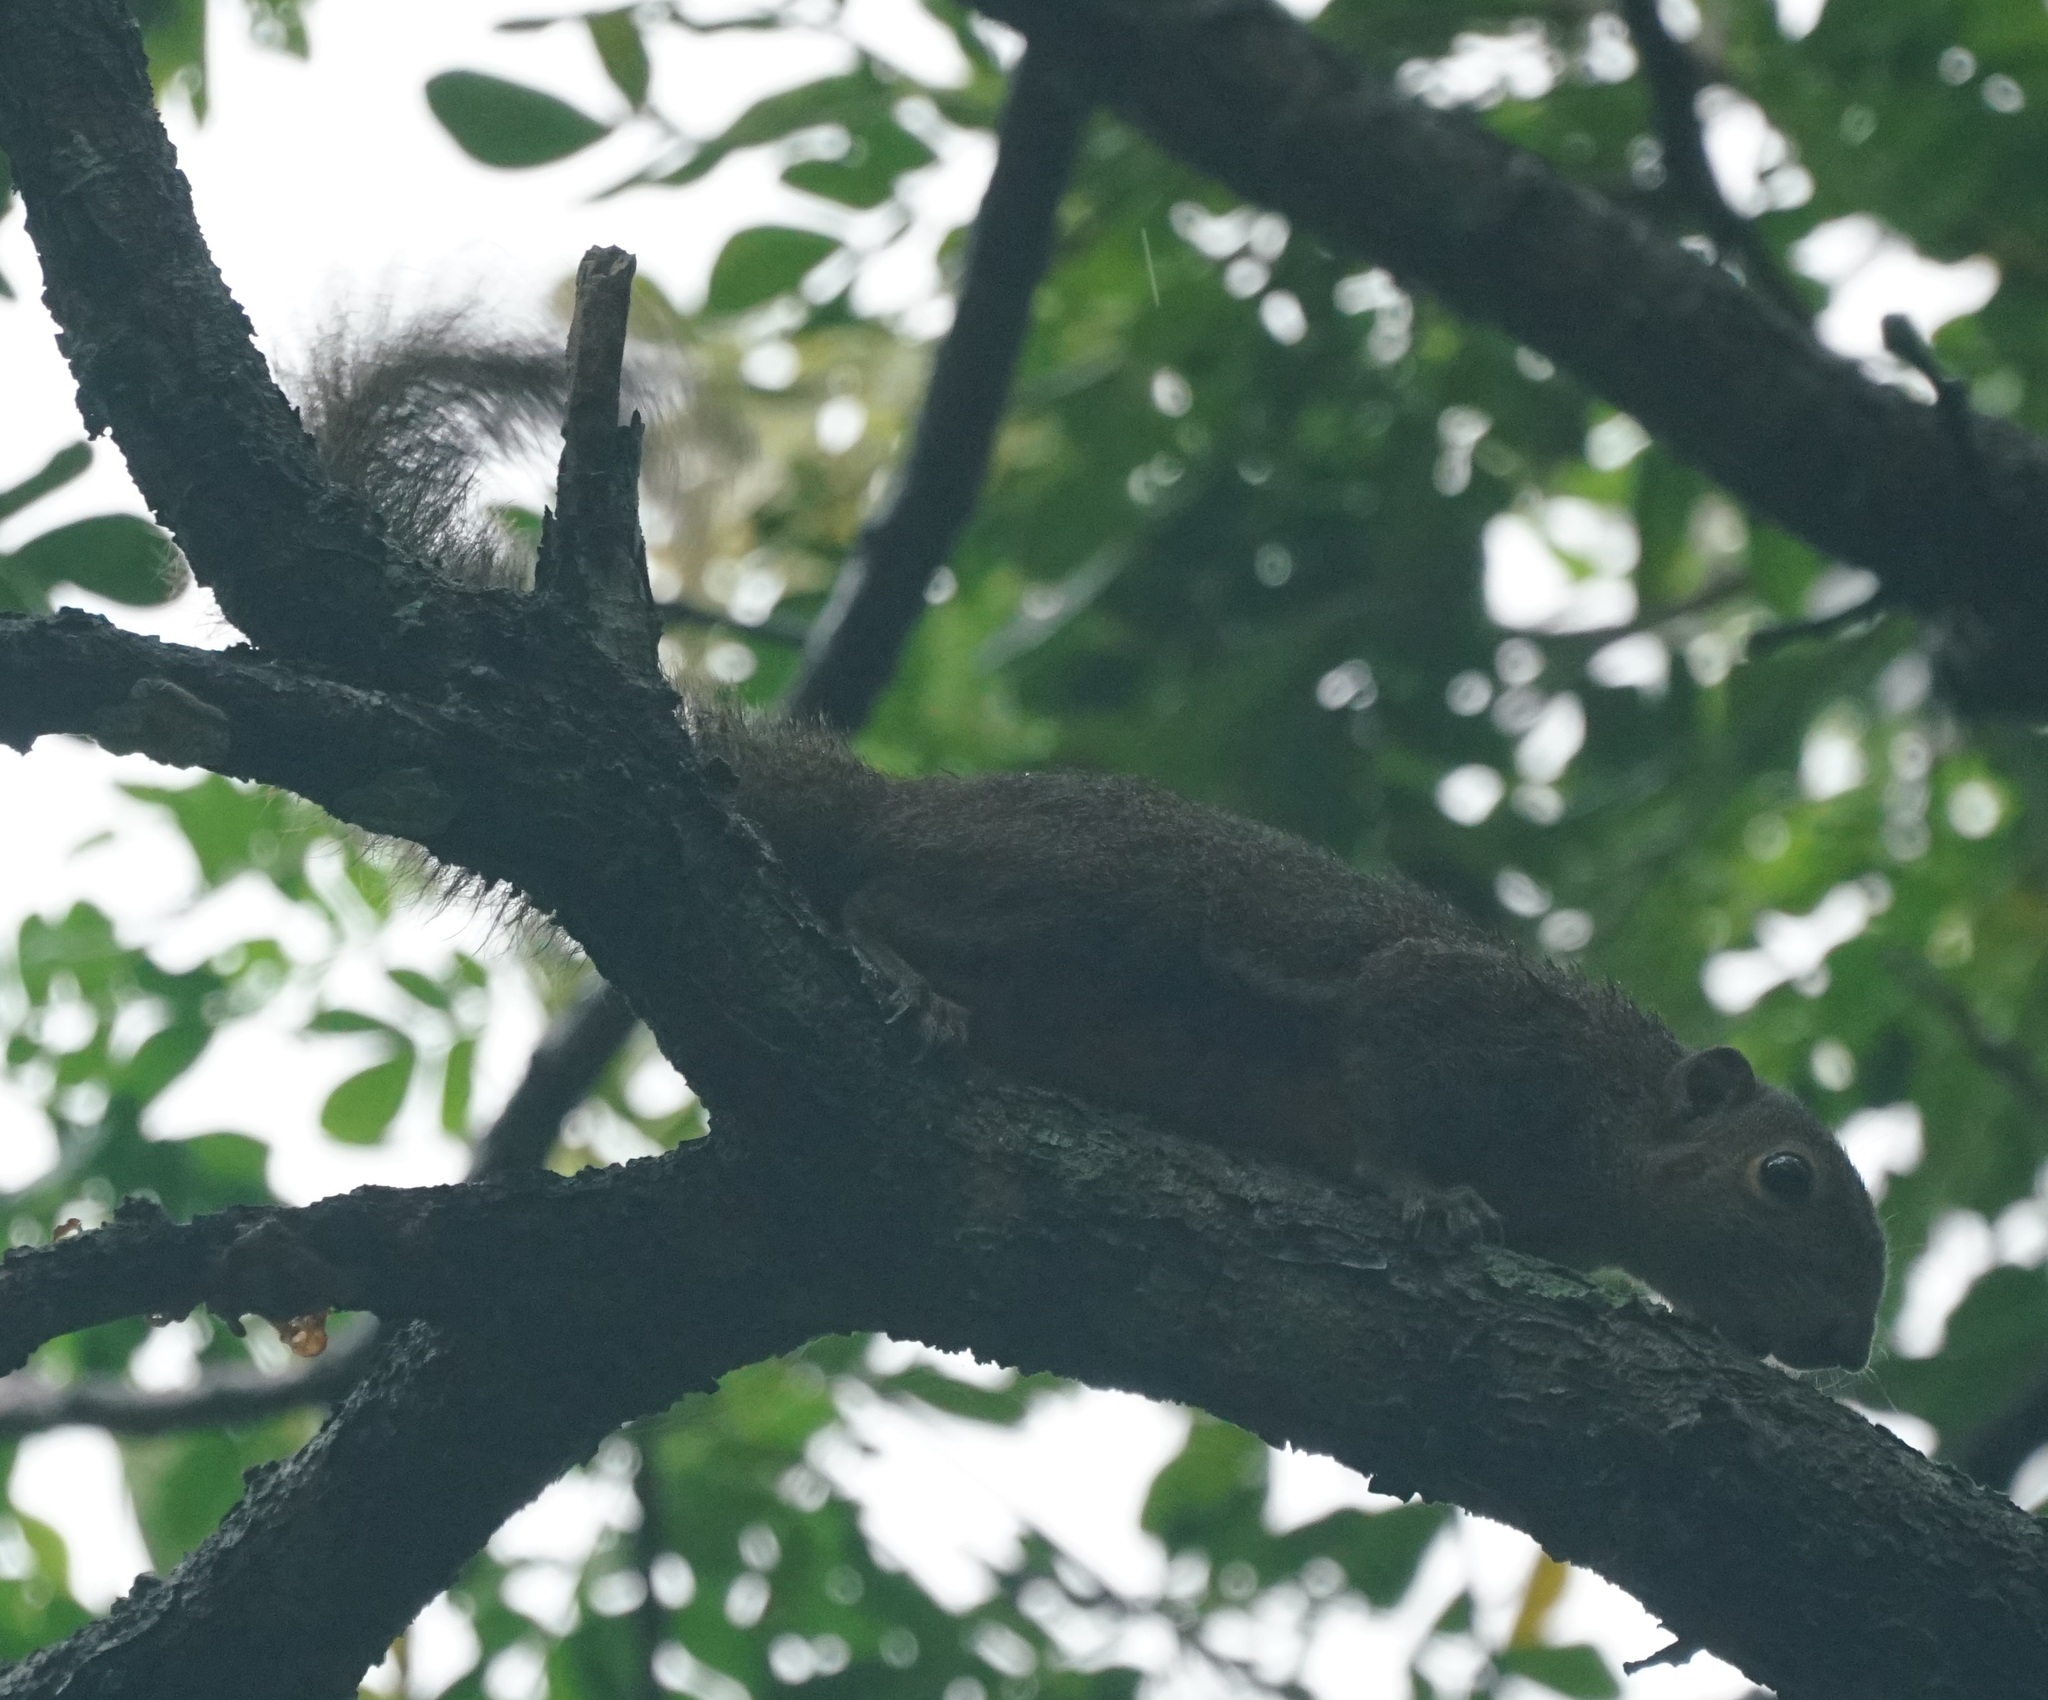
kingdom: Animalia
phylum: Chordata
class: Mammalia
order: Rodentia
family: Sciuridae
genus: Callosciurus
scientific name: Callosciurus notatus
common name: Plantain squirrel
